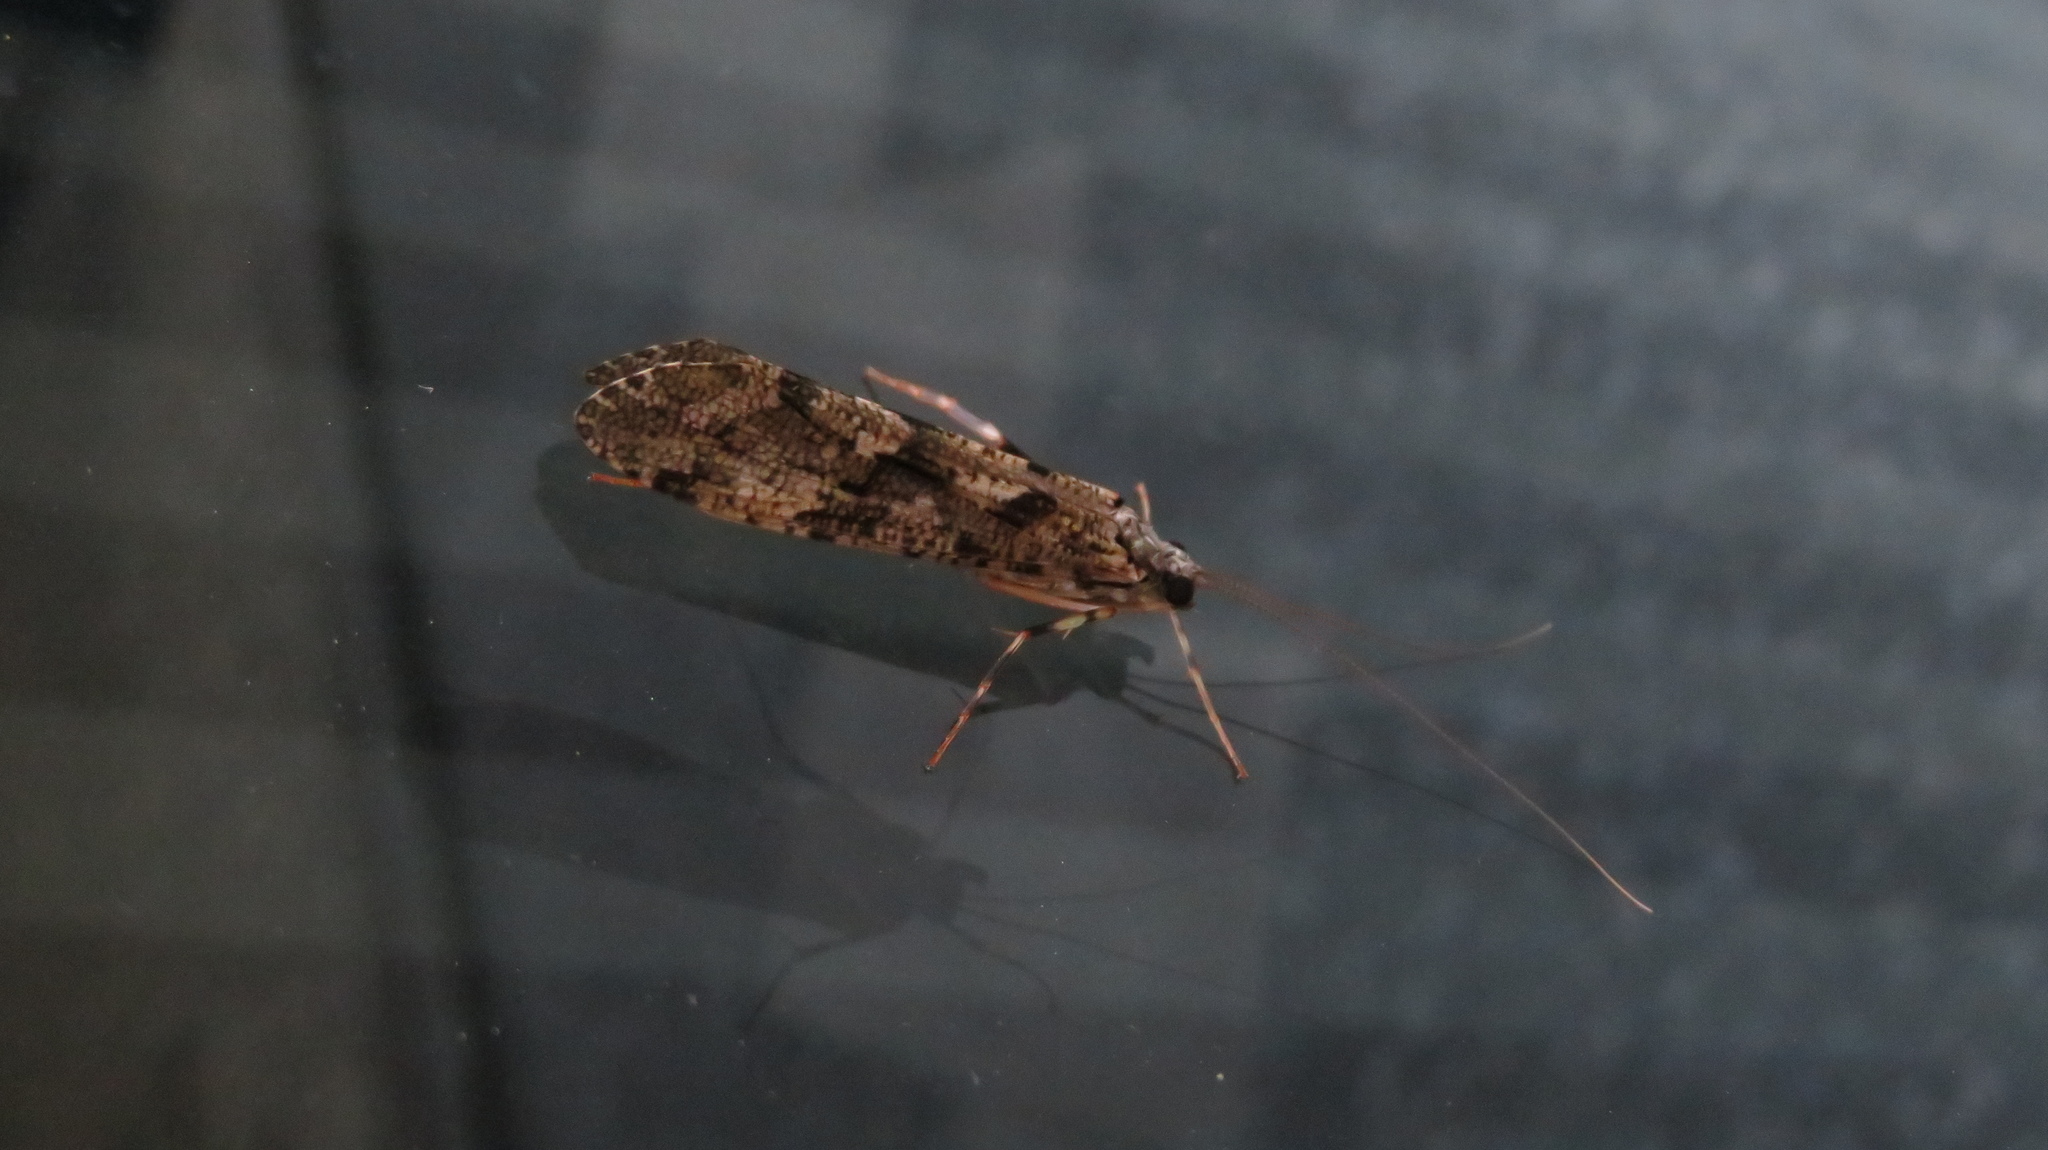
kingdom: Animalia
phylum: Arthropoda
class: Insecta
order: Trichoptera
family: Stenopsychidae
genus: Stenopsyche
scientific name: Stenopsyche marmorata
